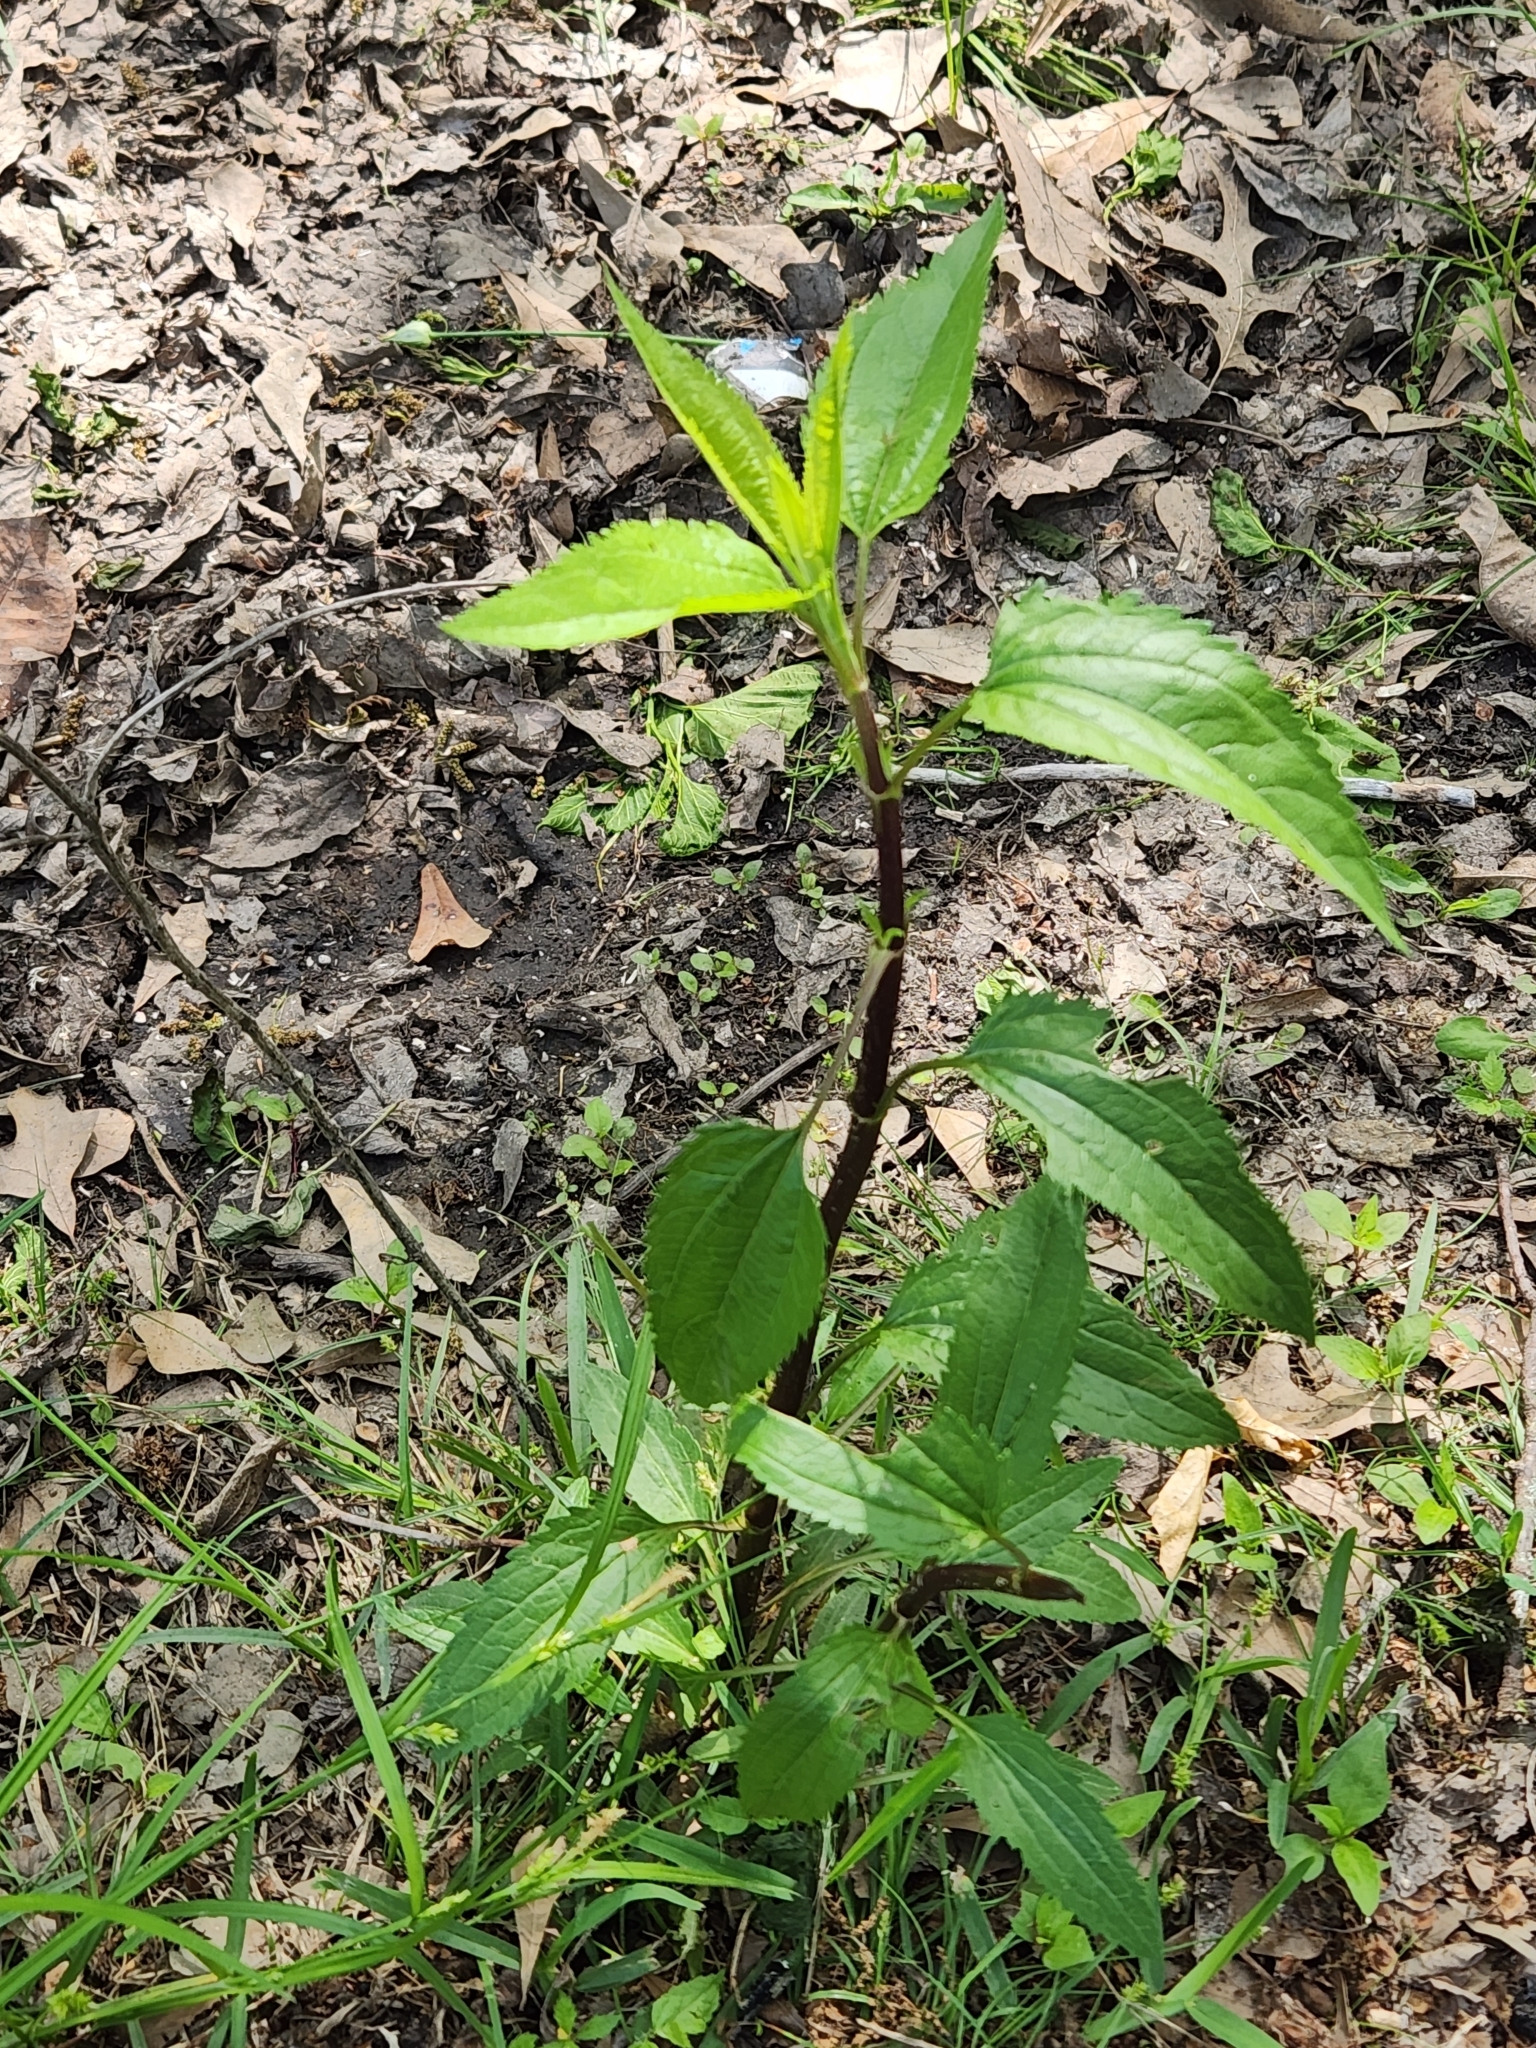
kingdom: Plantae
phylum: Tracheophyta
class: Magnoliopsida
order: Asterales
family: Asteraceae
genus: Eupatorium
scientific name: Eupatorium serotinum
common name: Late boneset
